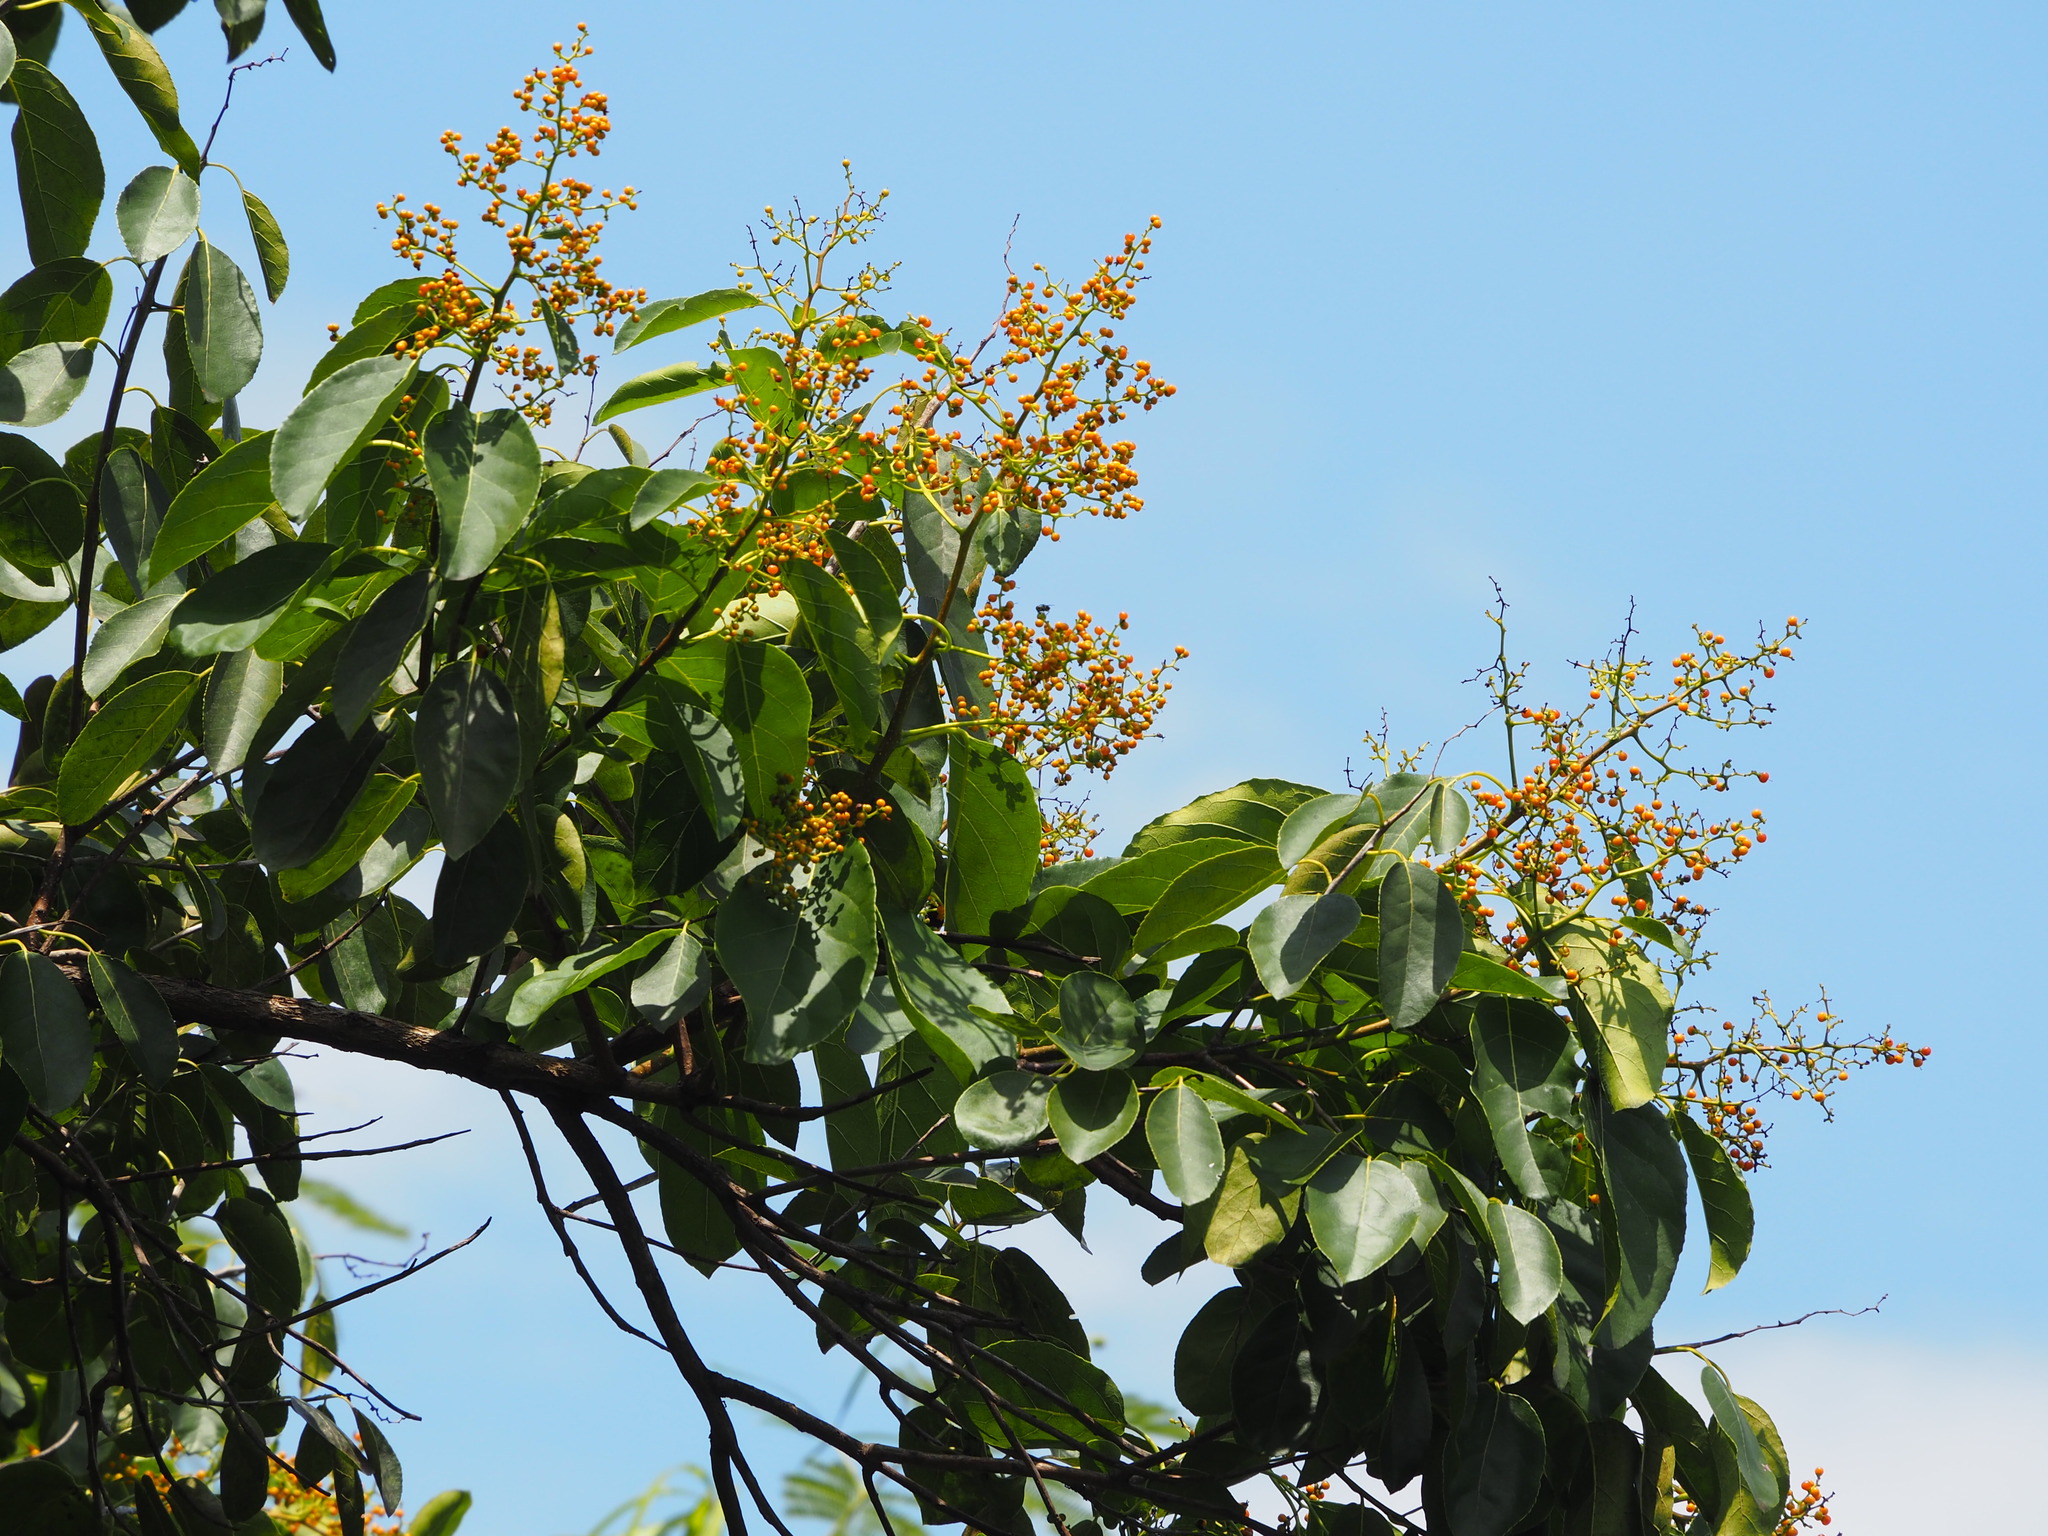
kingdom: Plantae
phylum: Tracheophyta
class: Magnoliopsida
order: Boraginales
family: Ehretiaceae
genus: Ehretia
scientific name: Ehretia acuminata
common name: Kodo wood
